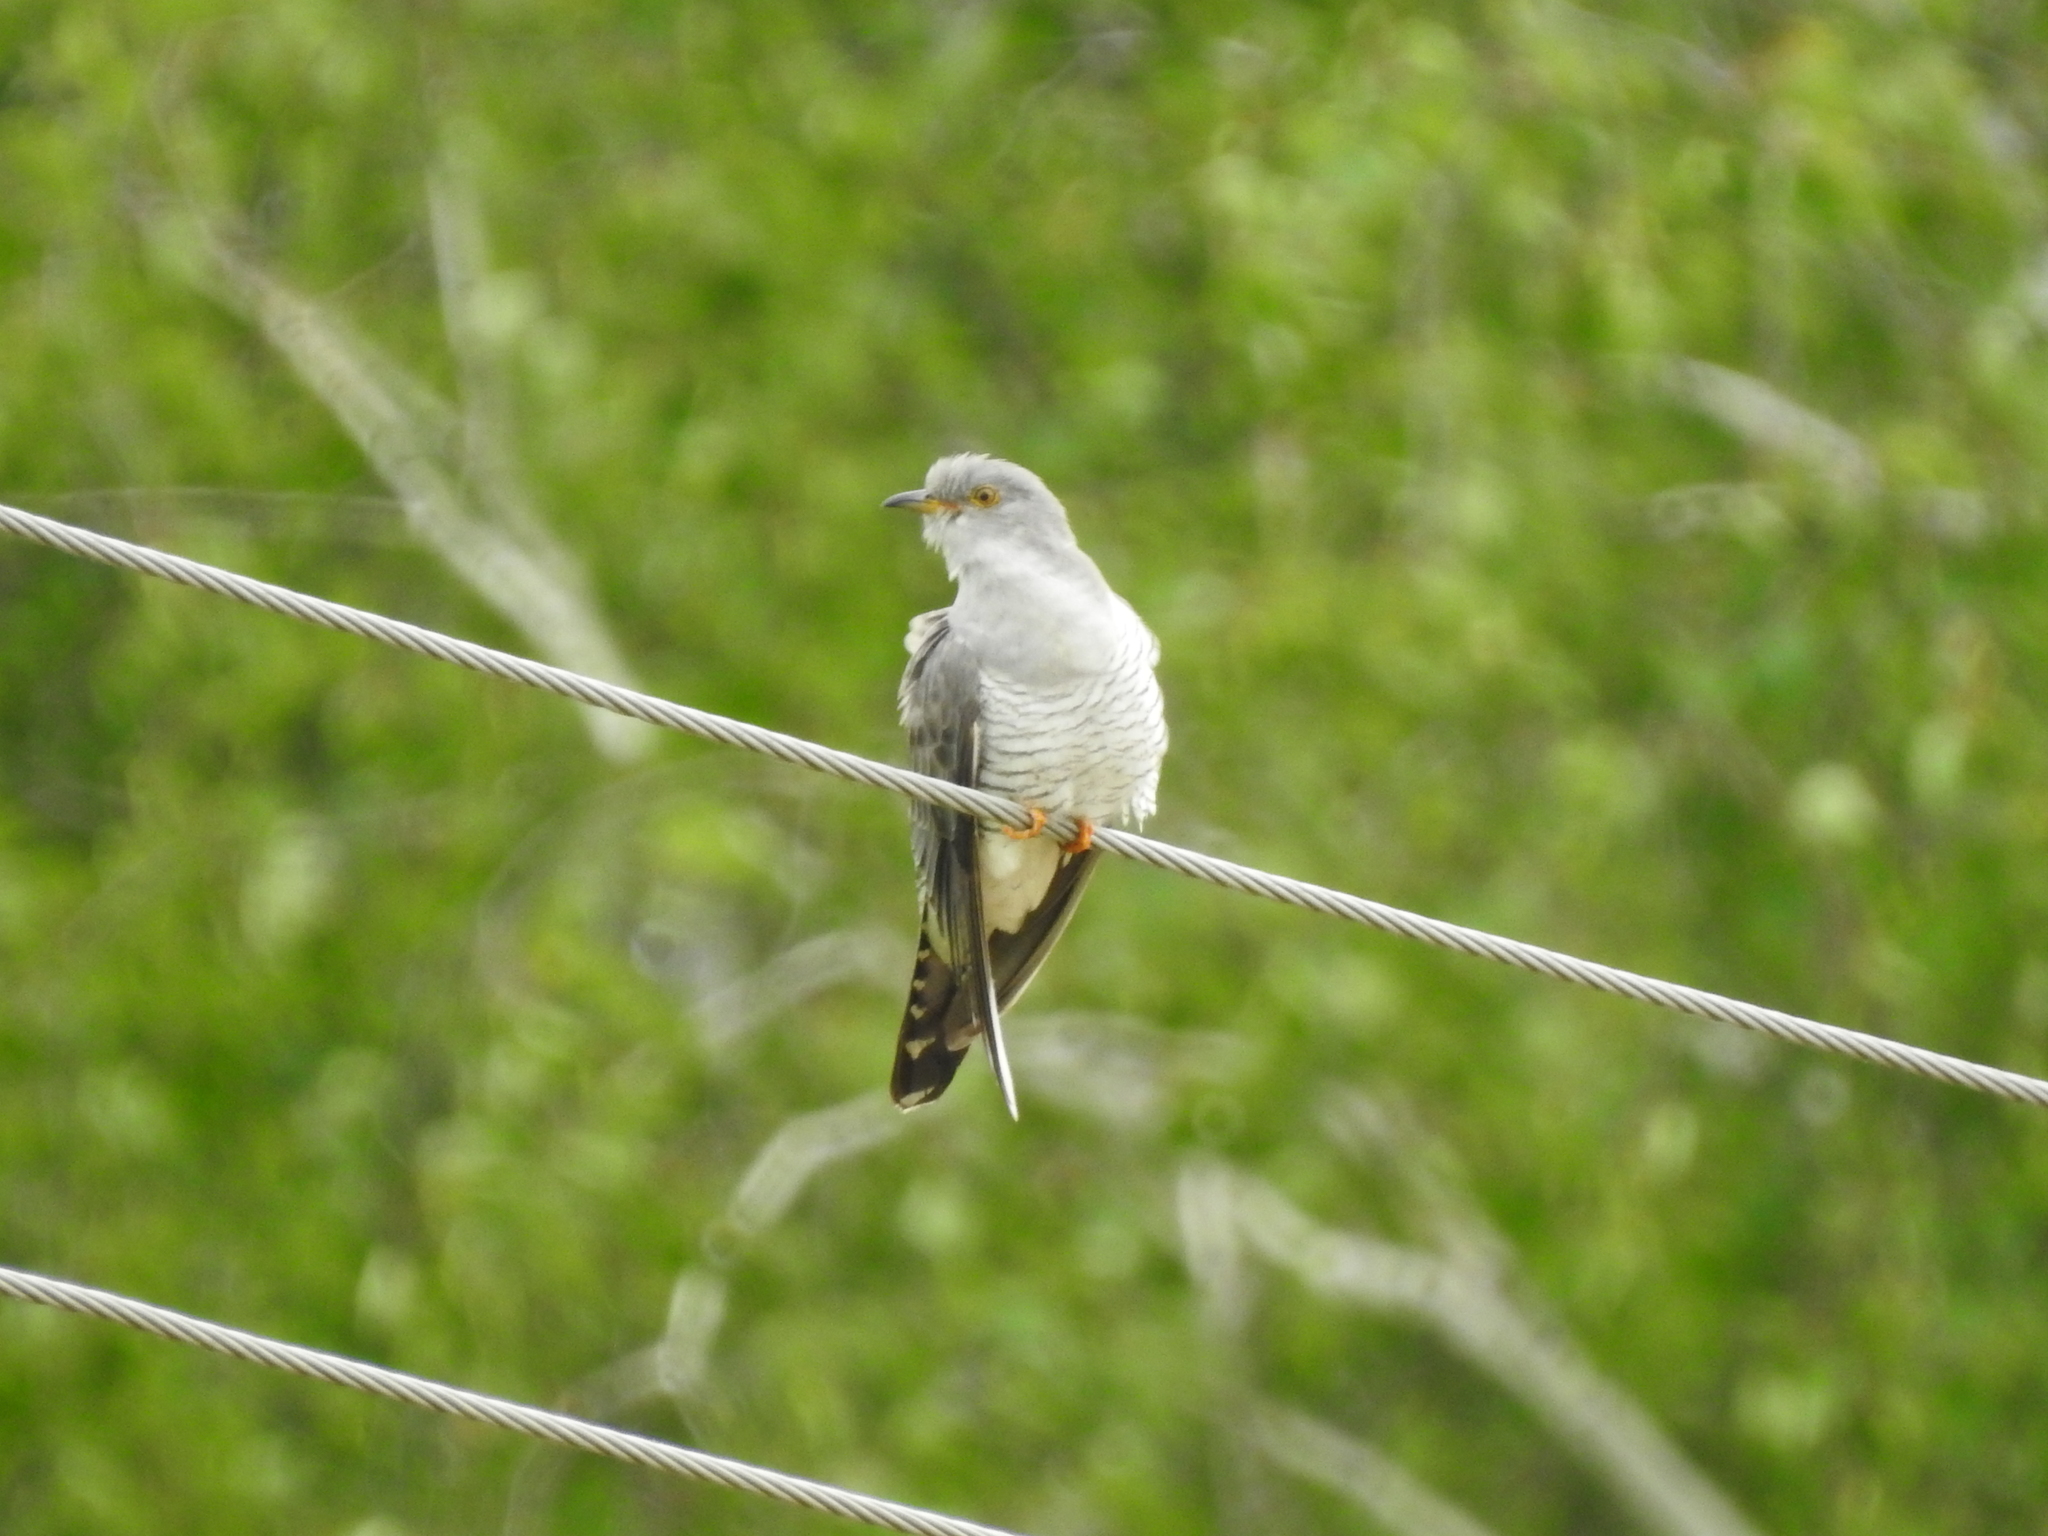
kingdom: Animalia
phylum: Chordata
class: Aves
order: Cuculiformes
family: Cuculidae
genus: Cuculus
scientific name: Cuculus canorus
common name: Common cuckoo
